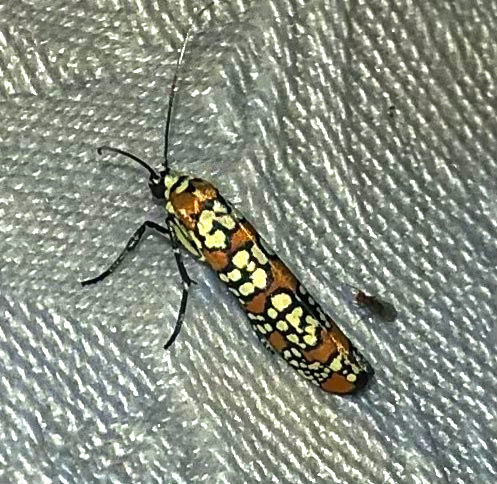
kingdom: Animalia
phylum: Arthropoda
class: Insecta
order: Lepidoptera
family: Attevidae
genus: Atteva
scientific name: Atteva punctella
